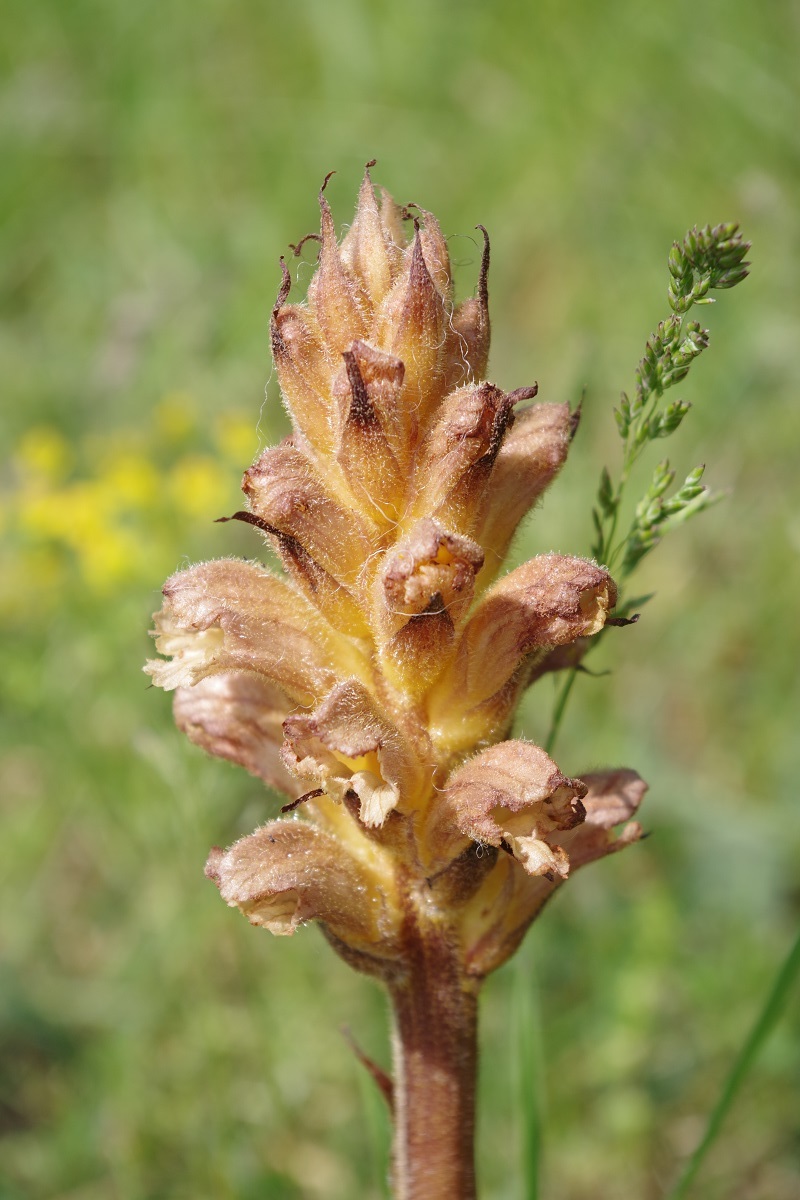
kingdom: Plantae
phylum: Tracheophyta
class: Magnoliopsida
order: Lamiales
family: Orobanchaceae
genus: Orobanche
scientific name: Orobanche lutea
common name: Yellow broomrape
